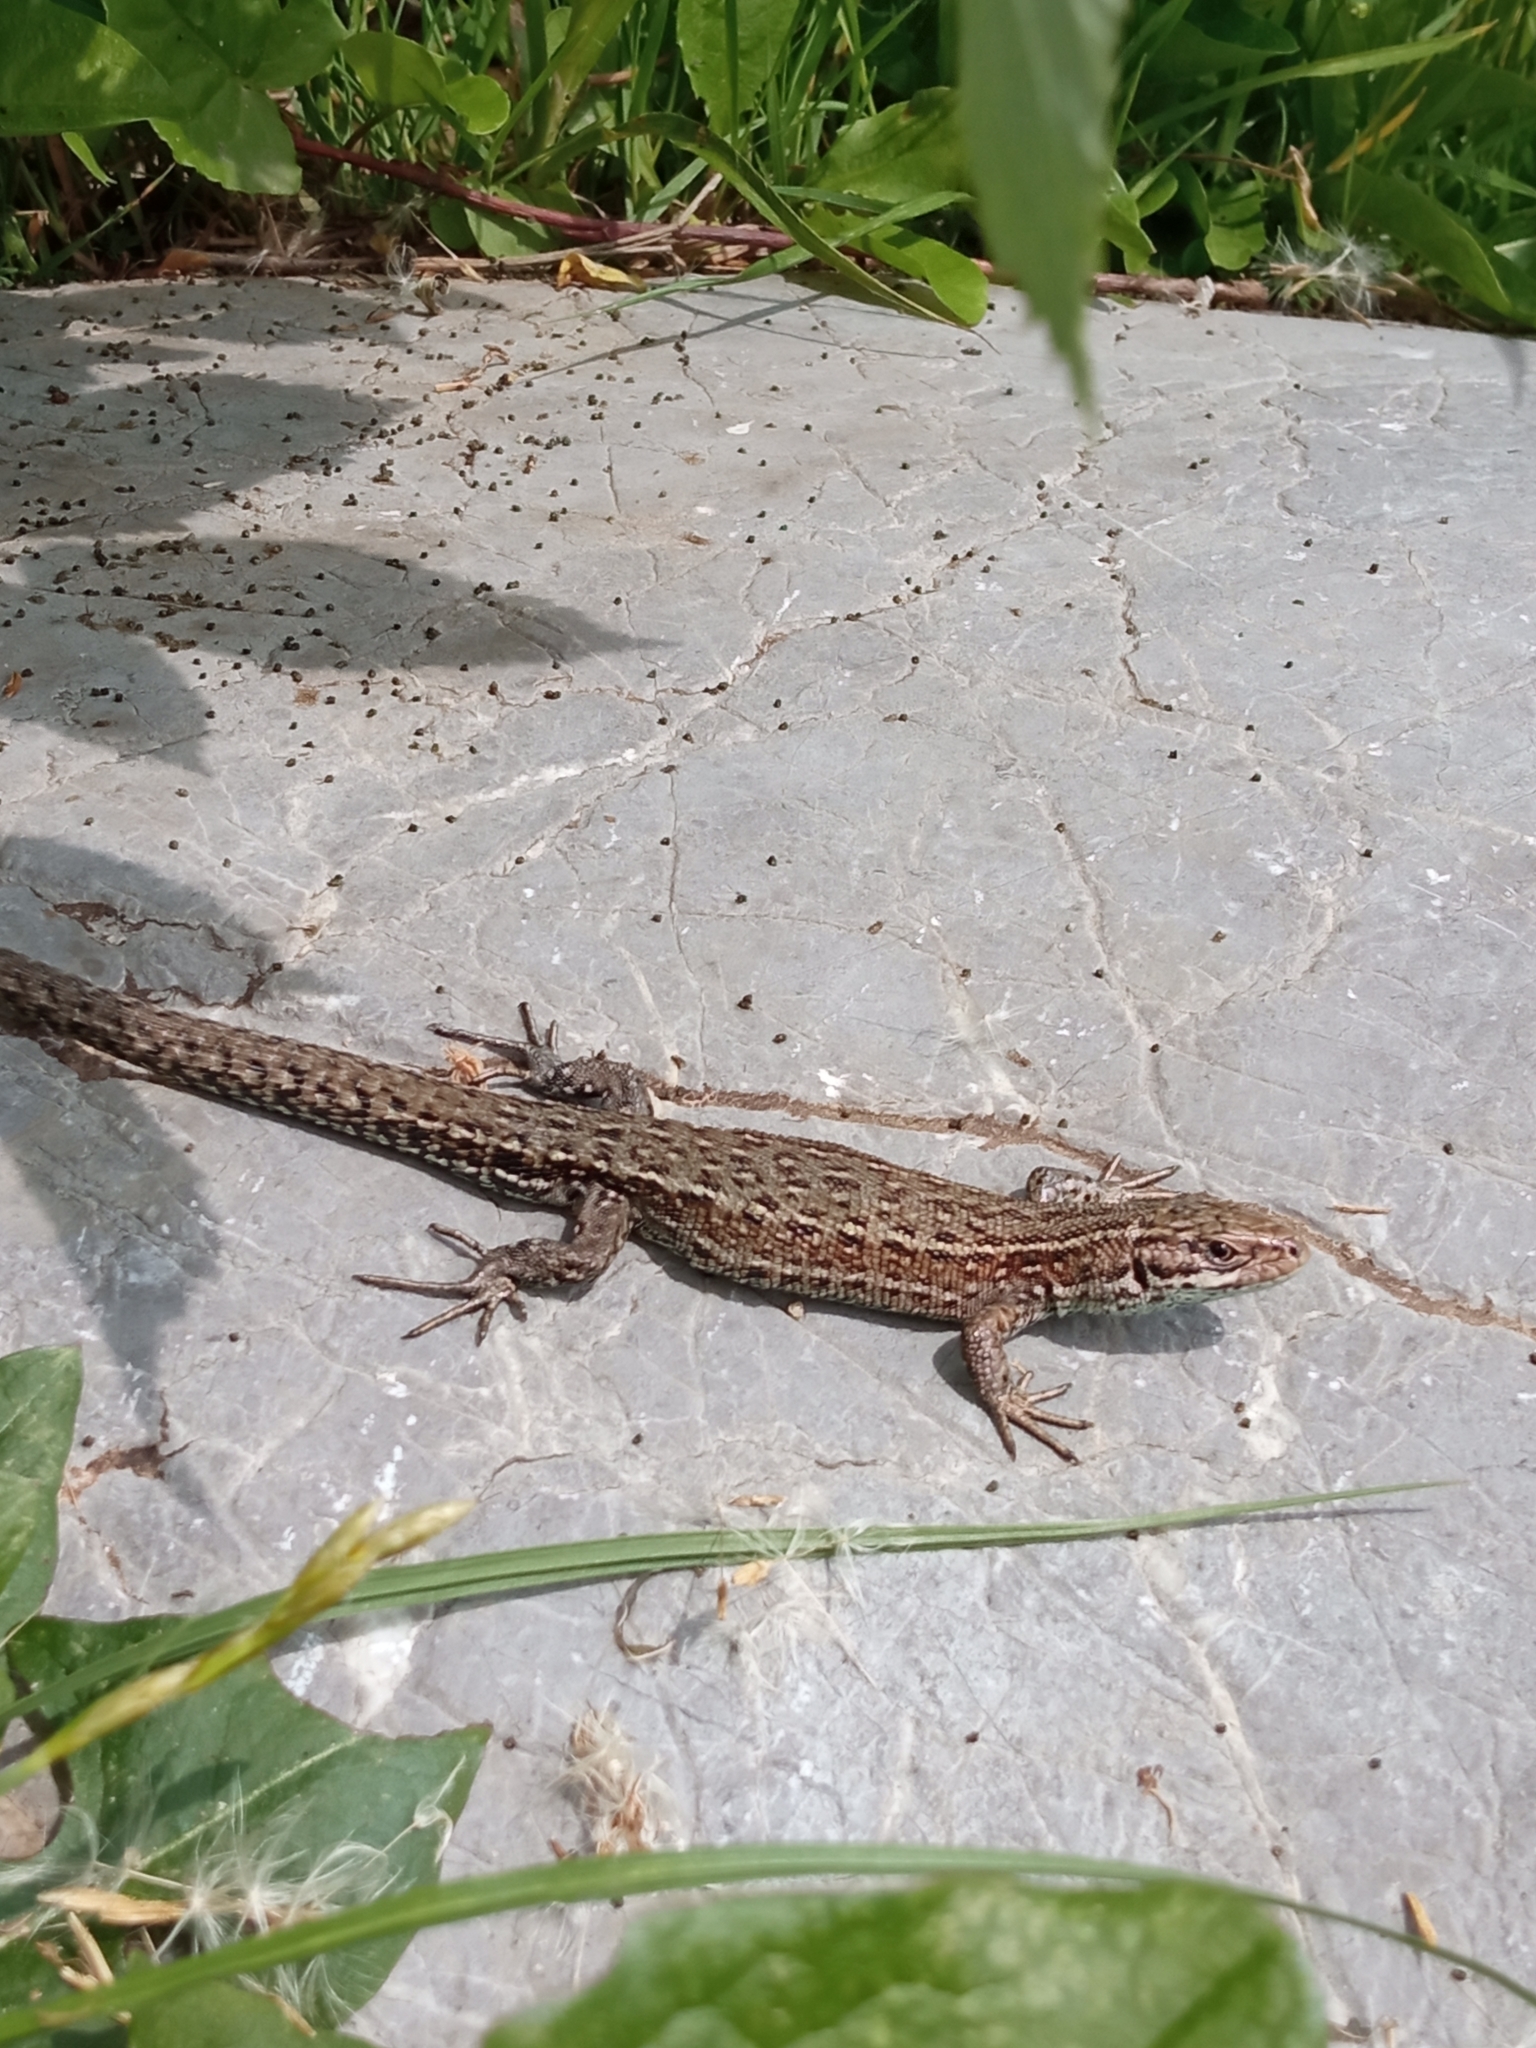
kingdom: Animalia
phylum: Chordata
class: Squamata
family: Lacertidae
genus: Zootoca
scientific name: Zootoca vivipara
